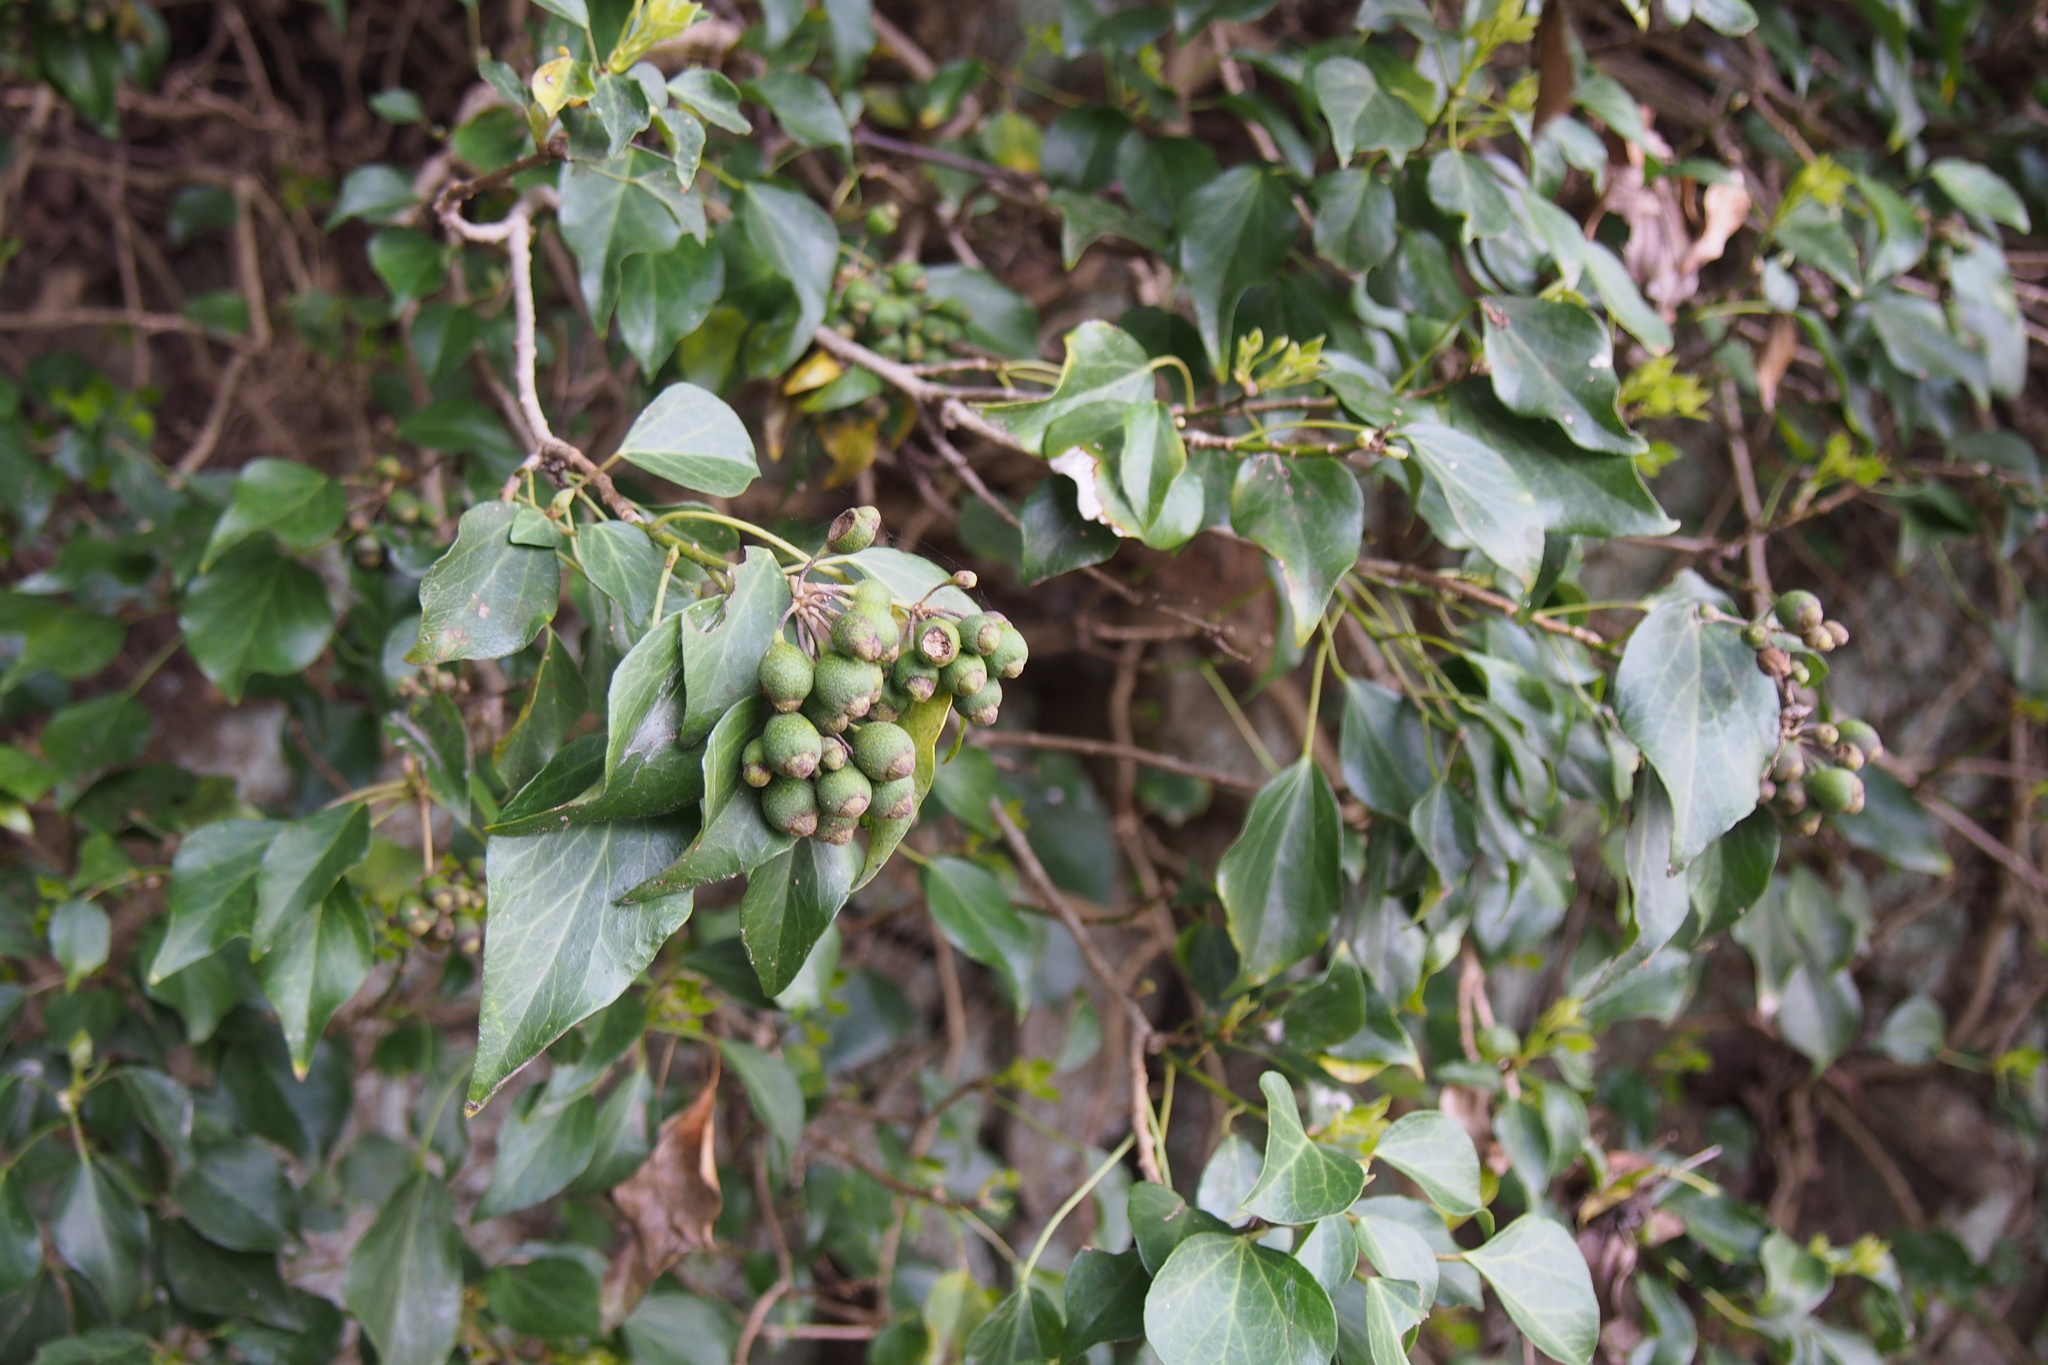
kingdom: Plantae
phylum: Tracheophyta
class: Magnoliopsida
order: Apiales
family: Araliaceae
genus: Hedera
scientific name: Hedera rhombea
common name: Japanese ivy
